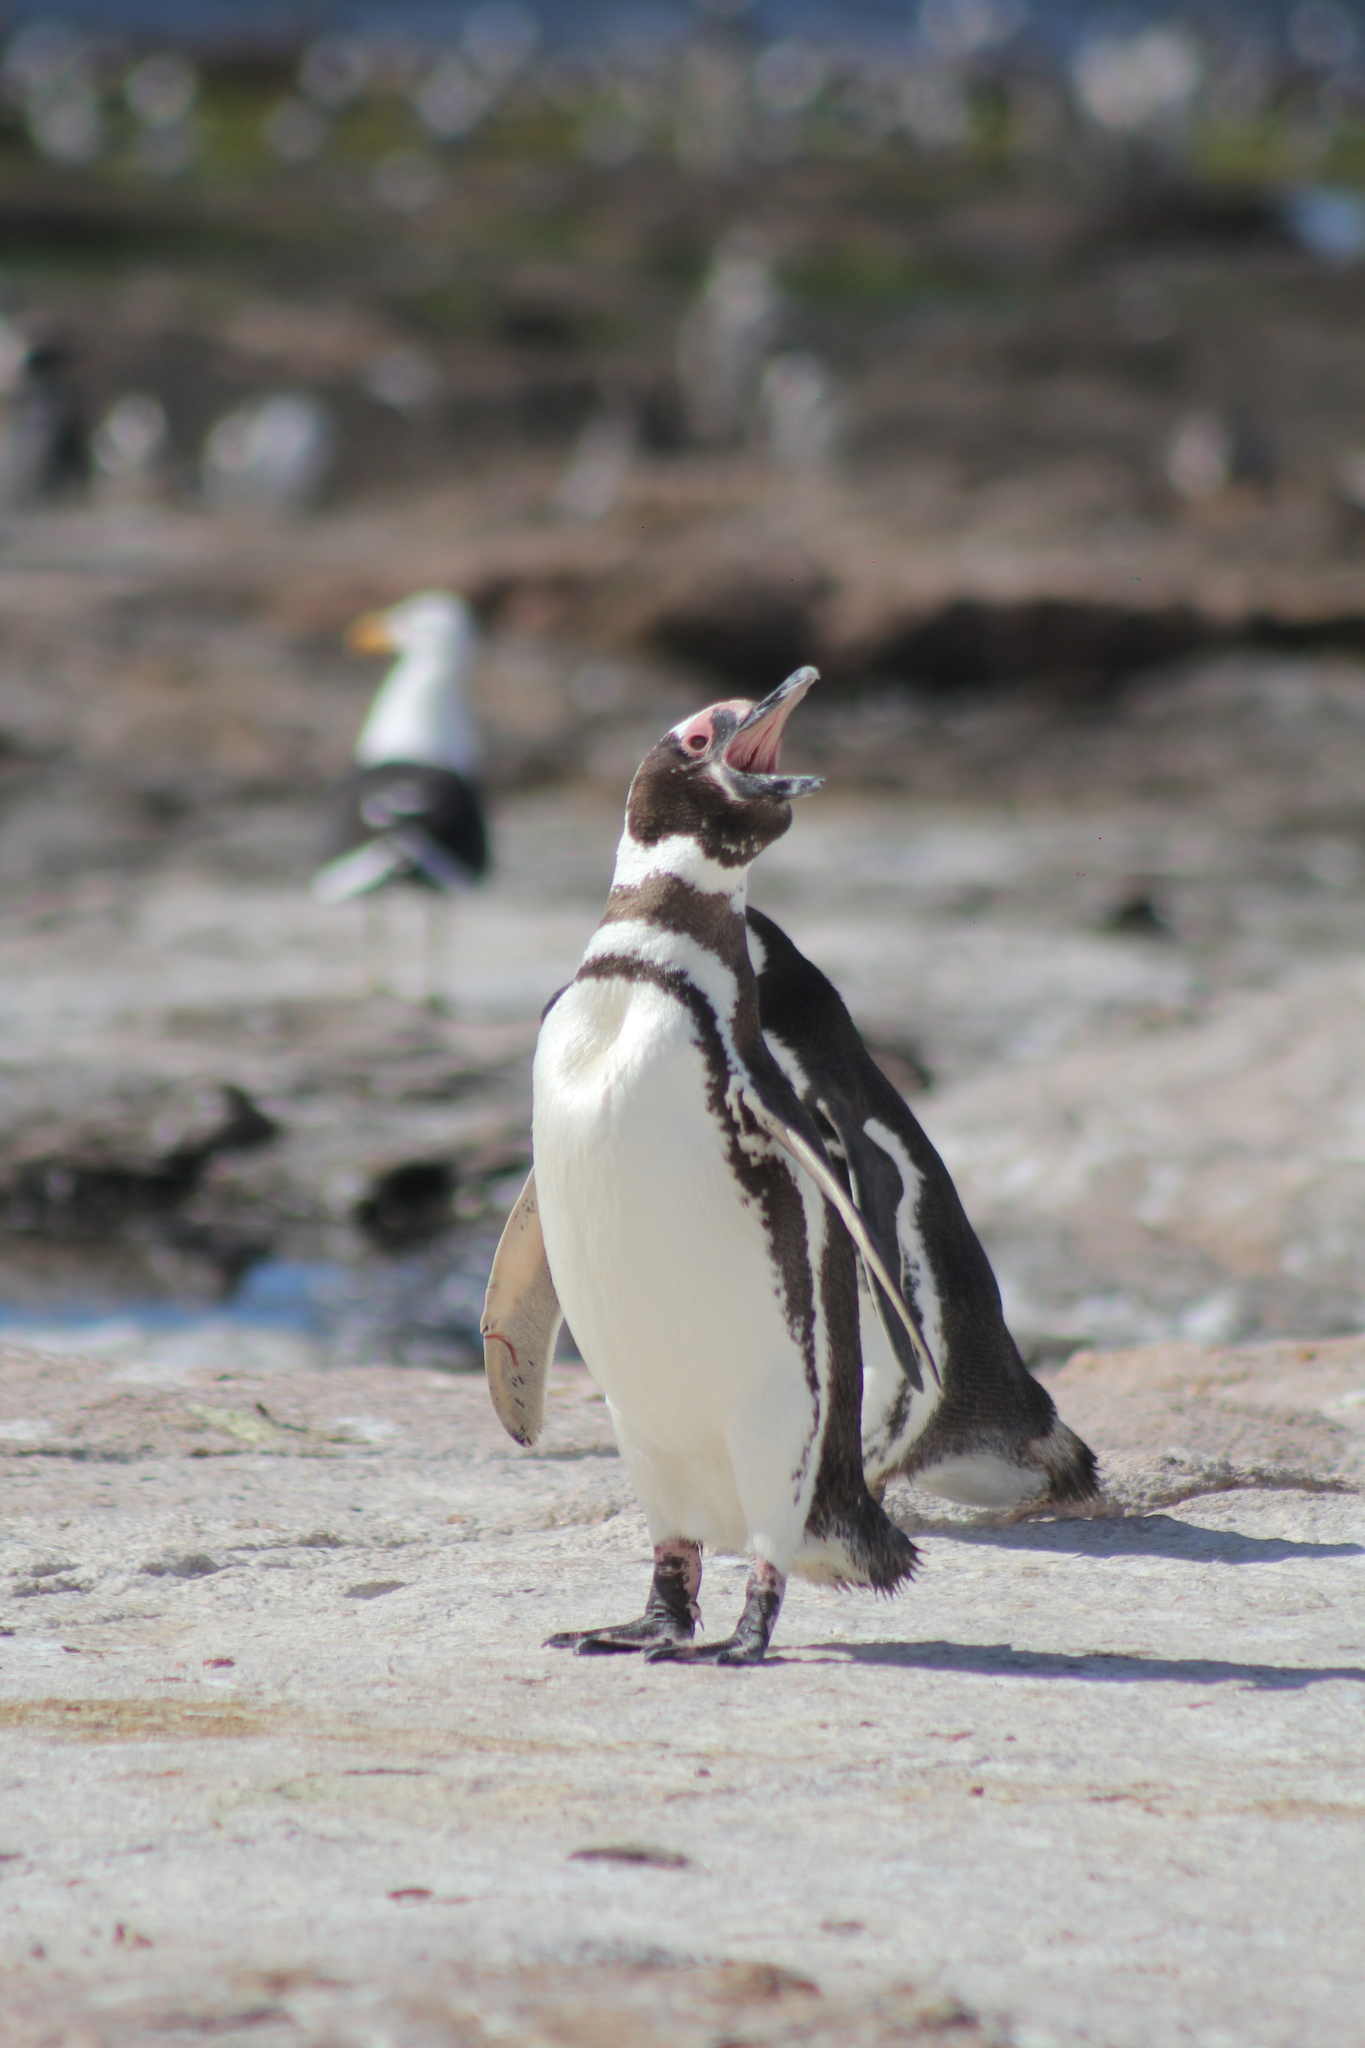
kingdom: Animalia
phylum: Chordata
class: Aves
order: Sphenisciformes
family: Spheniscidae
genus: Spheniscus
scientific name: Spheniscus magellanicus
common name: Magellanic penguin
